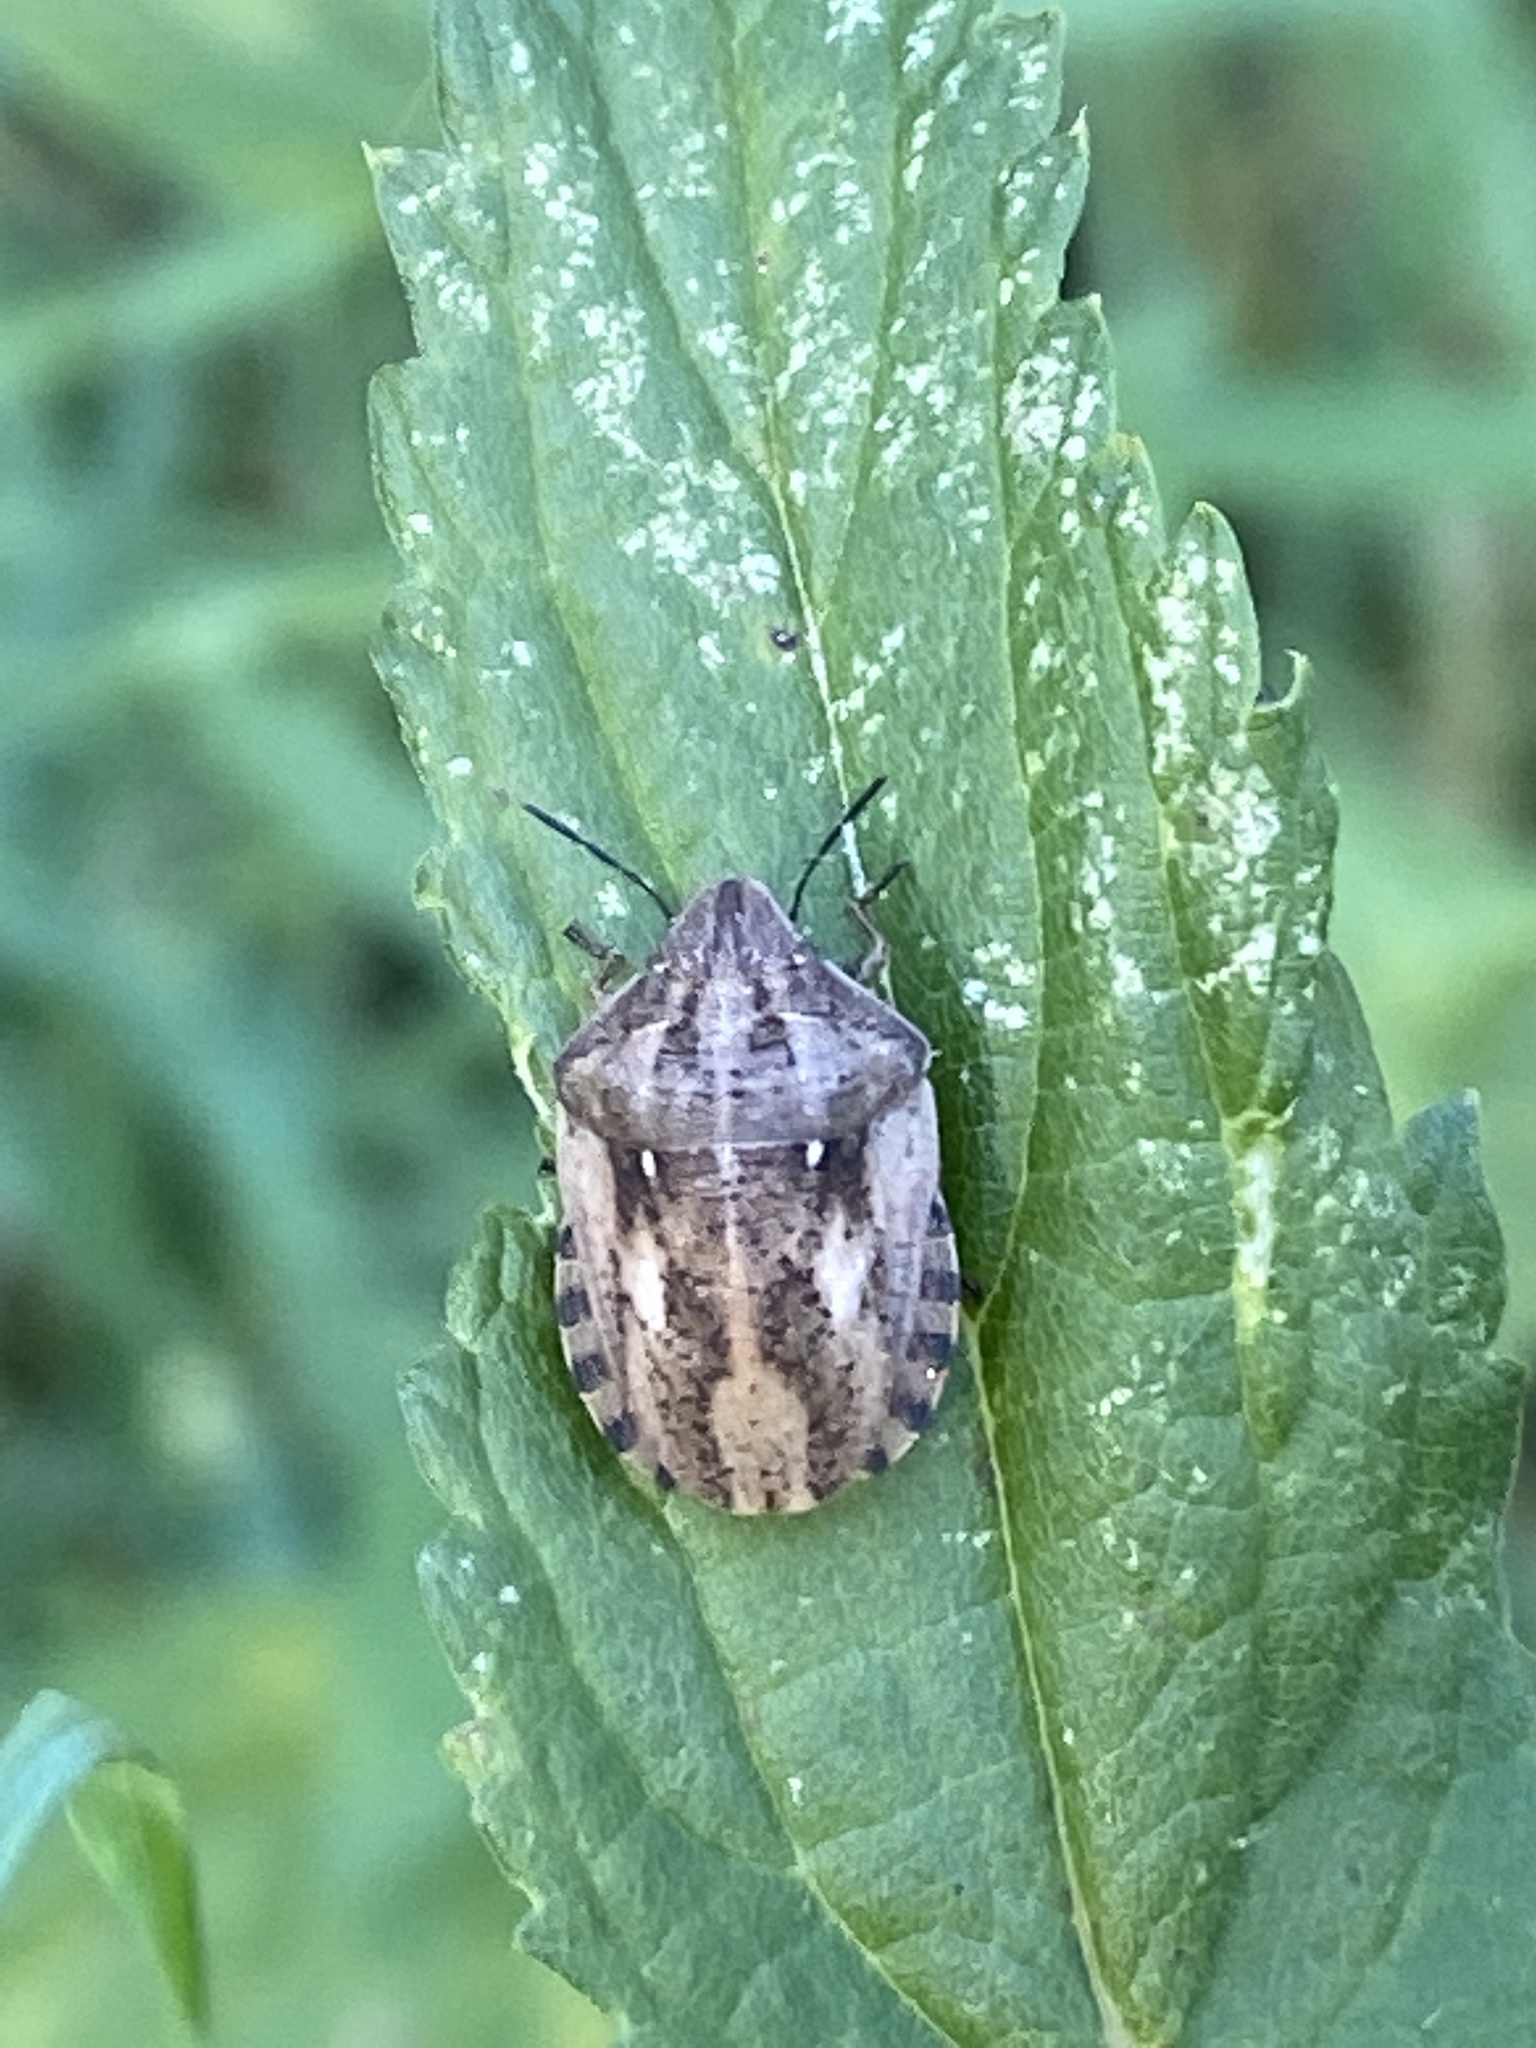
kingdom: Animalia
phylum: Arthropoda
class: Insecta
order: Hemiptera
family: Scutelleridae
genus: Eurygaster
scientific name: Eurygaster maura
